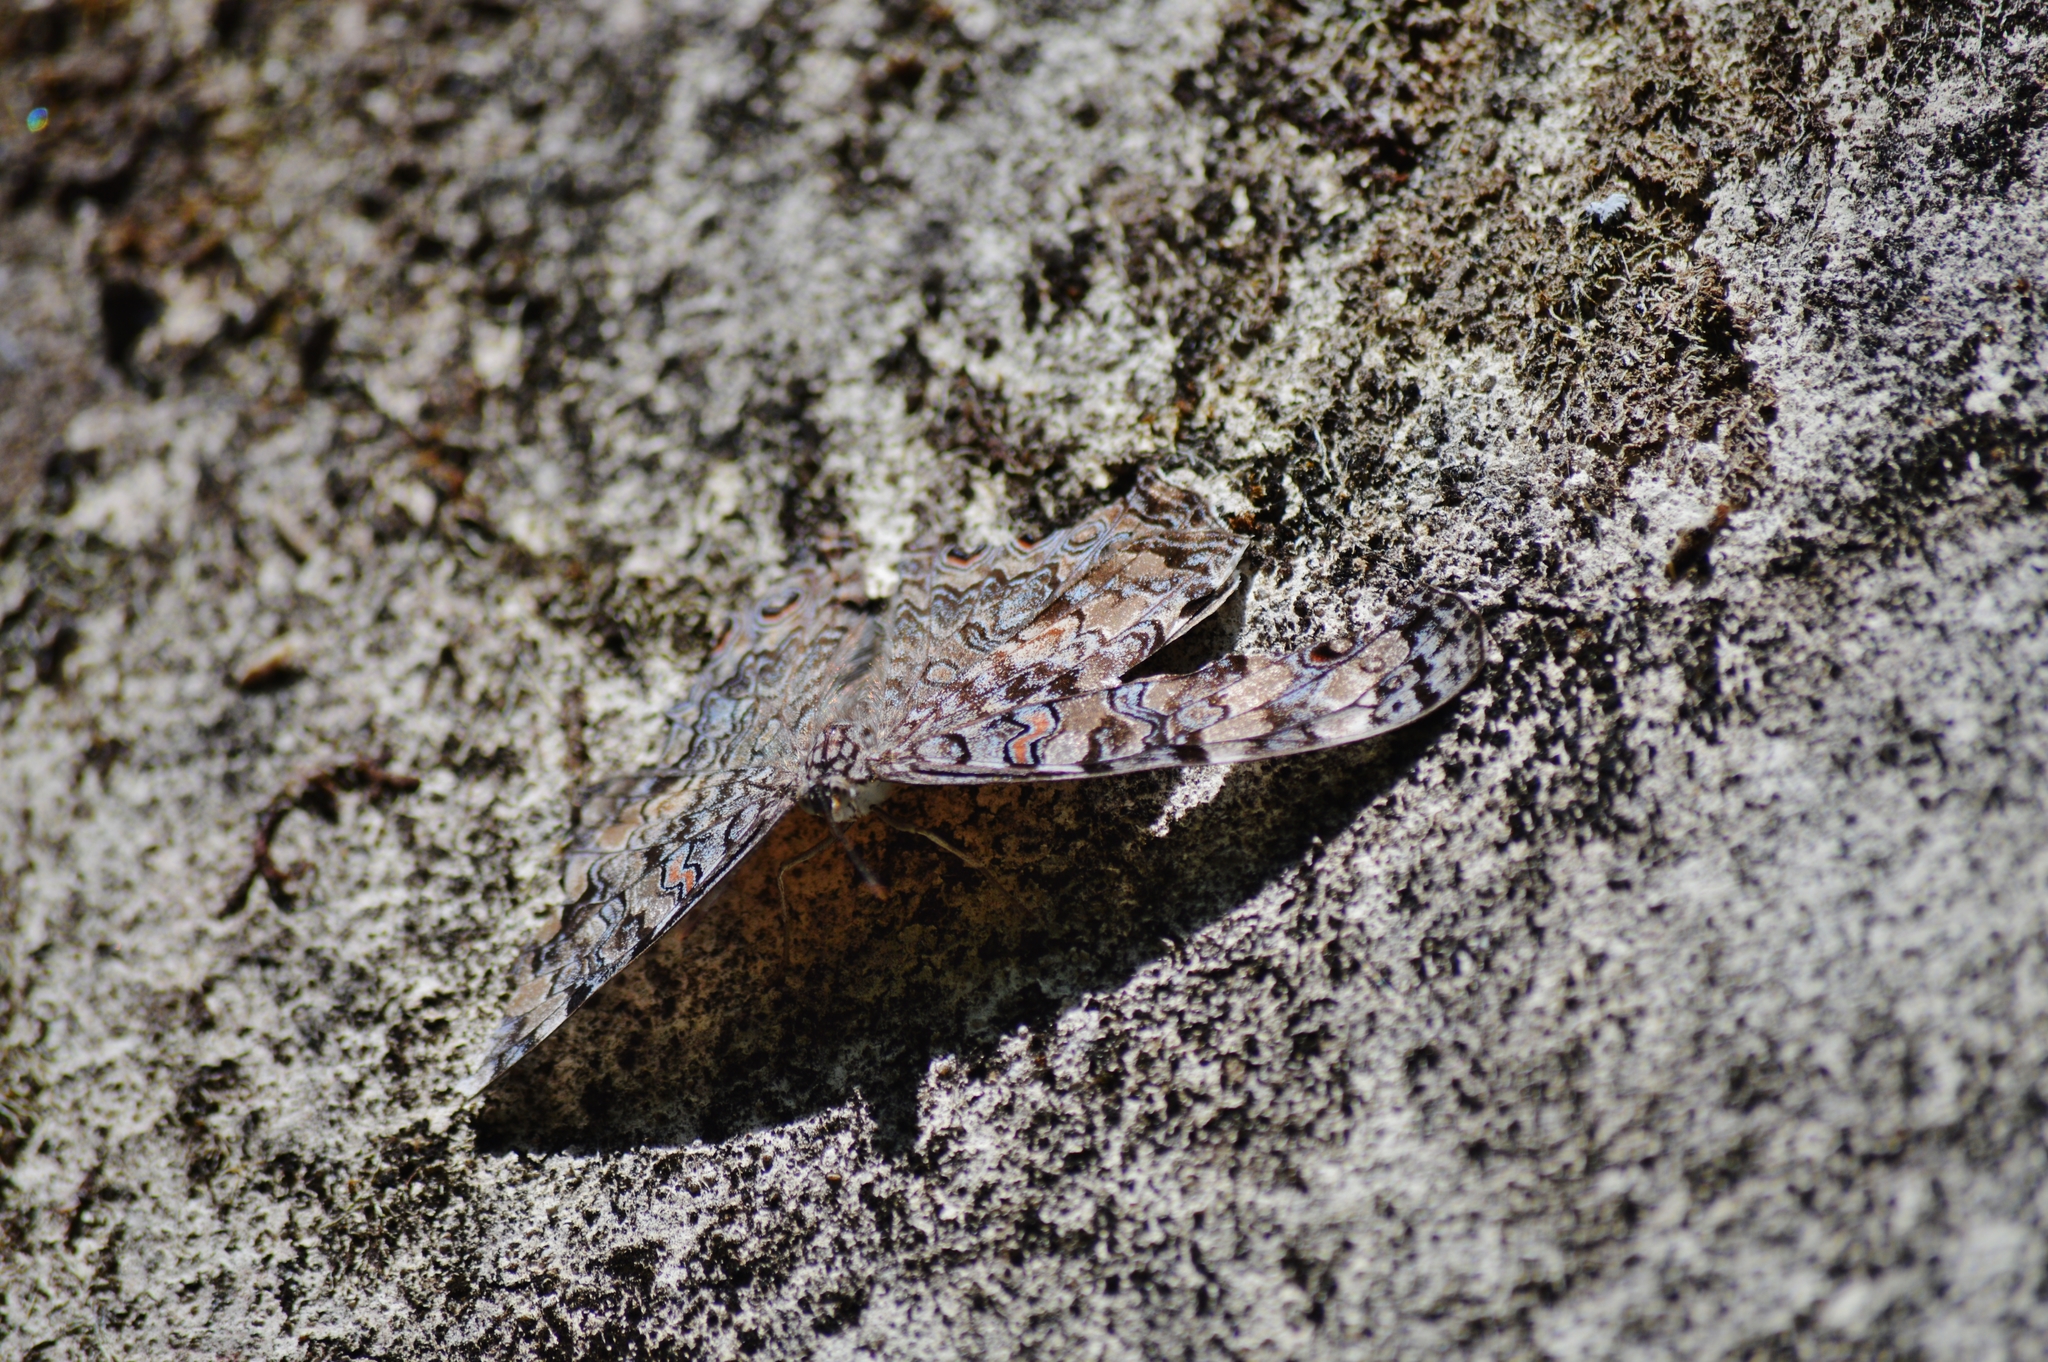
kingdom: Animalia
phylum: Arthropoda
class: Insecta
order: Lepidoptera
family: Nymphalidae
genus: Hamadryas
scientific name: Hamadryas feronia
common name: Variable cracker
